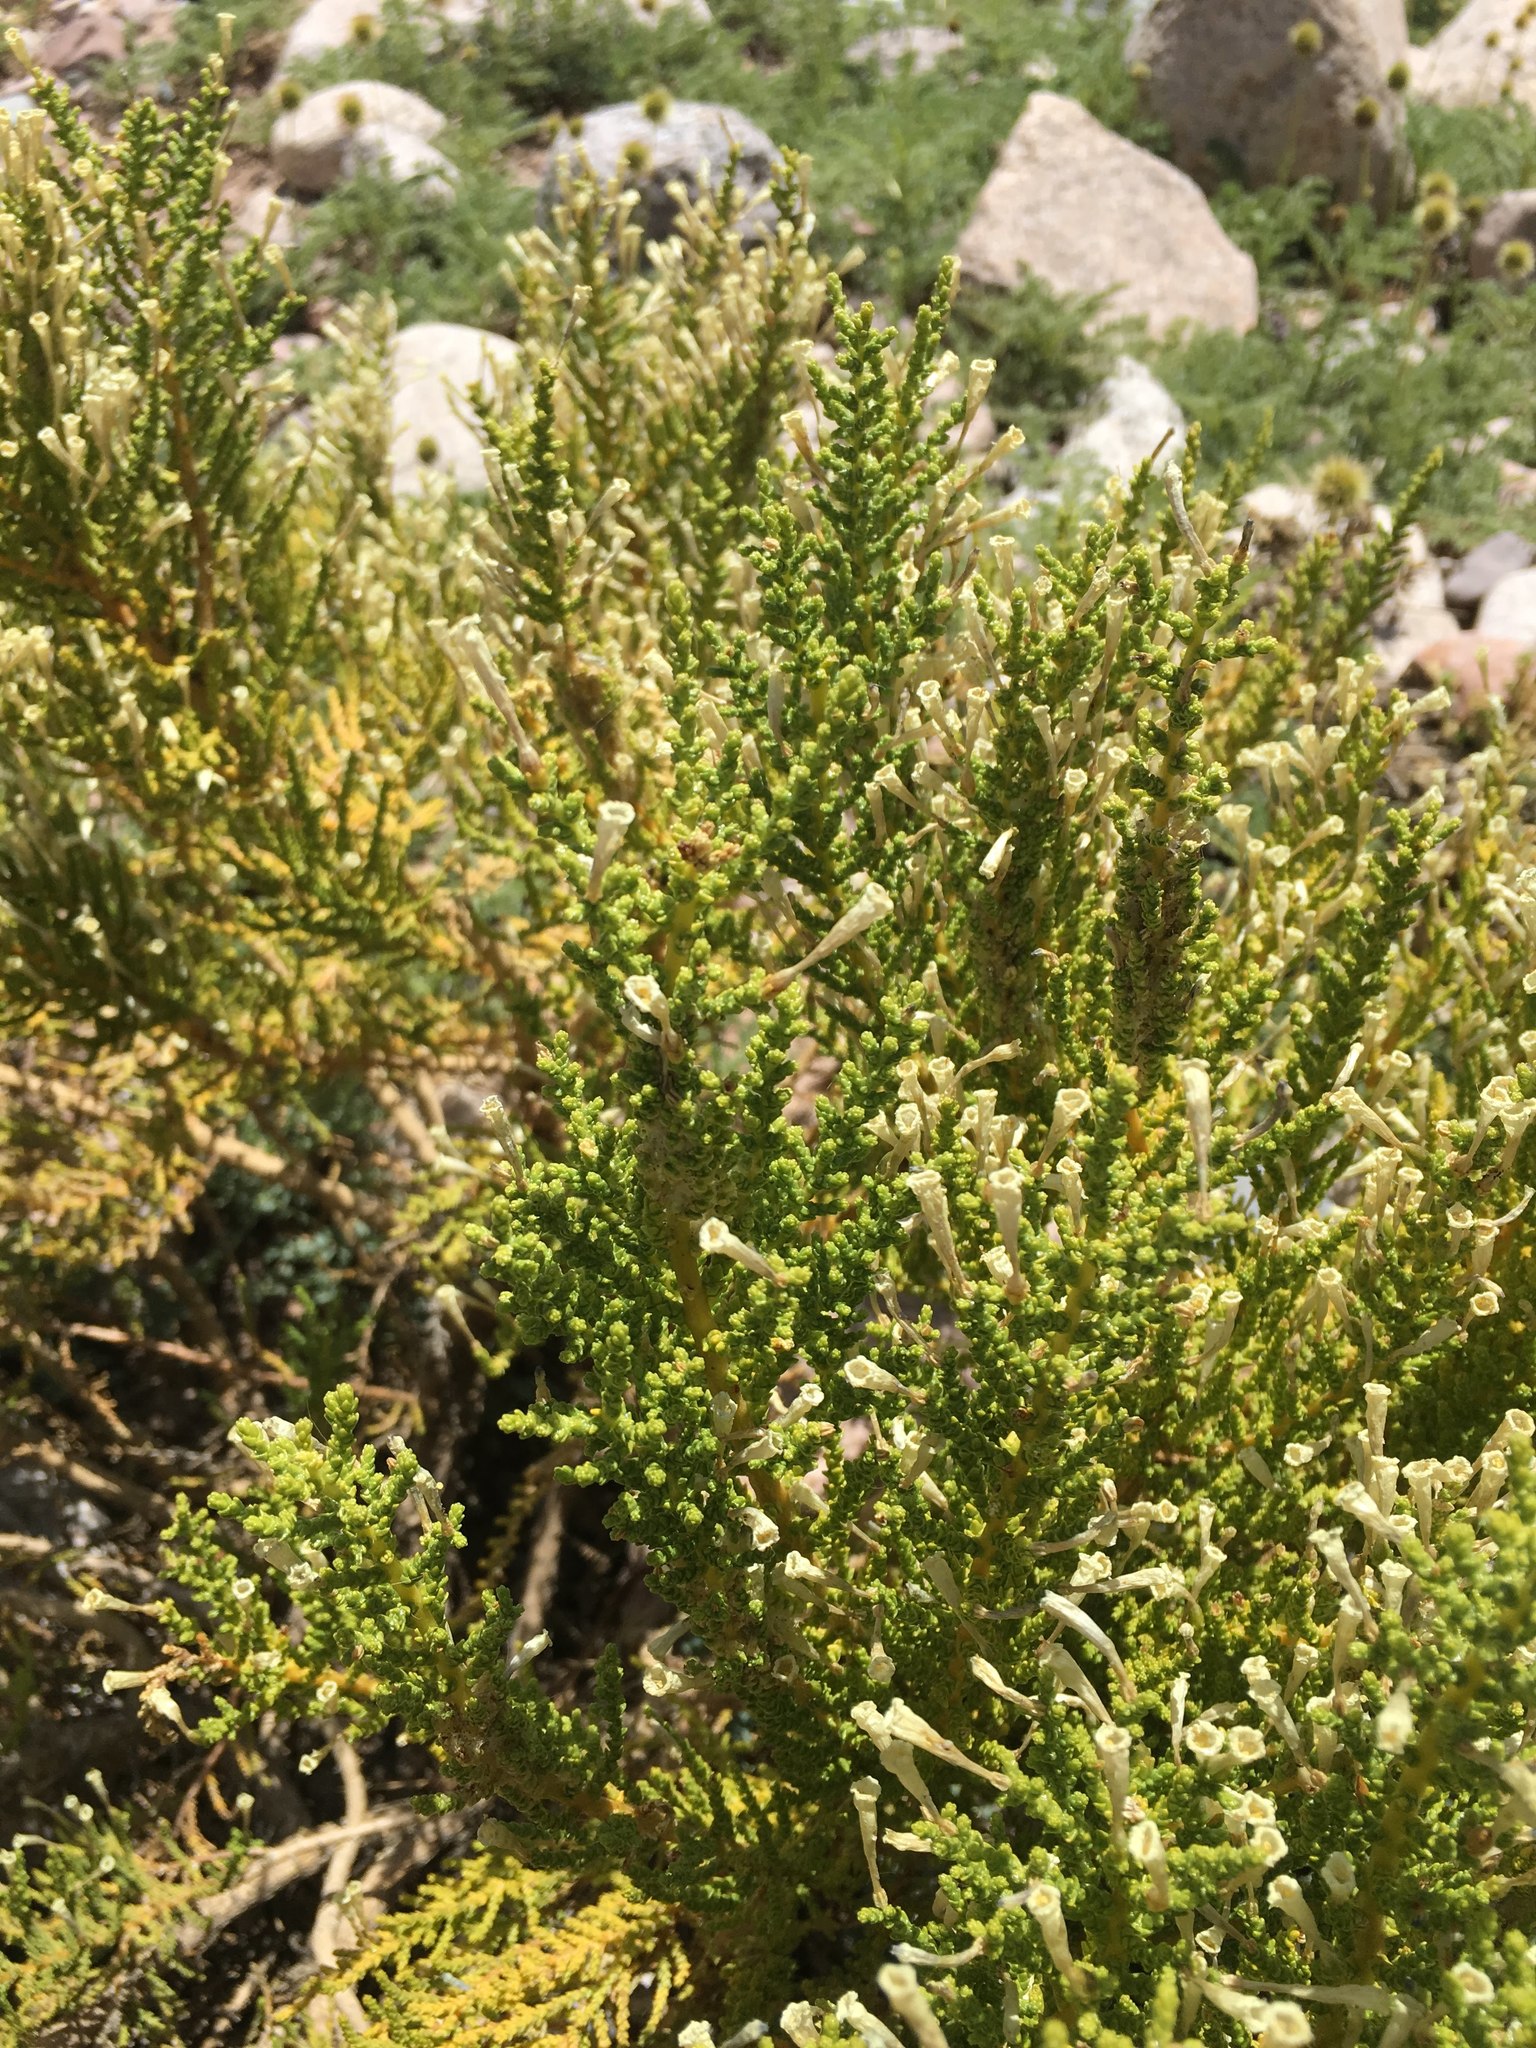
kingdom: Plantae
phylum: Tracheophyta
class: Magnoliopsida
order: Solanales
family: Solanaceae
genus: Fabiana
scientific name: Fabiana imbricata
